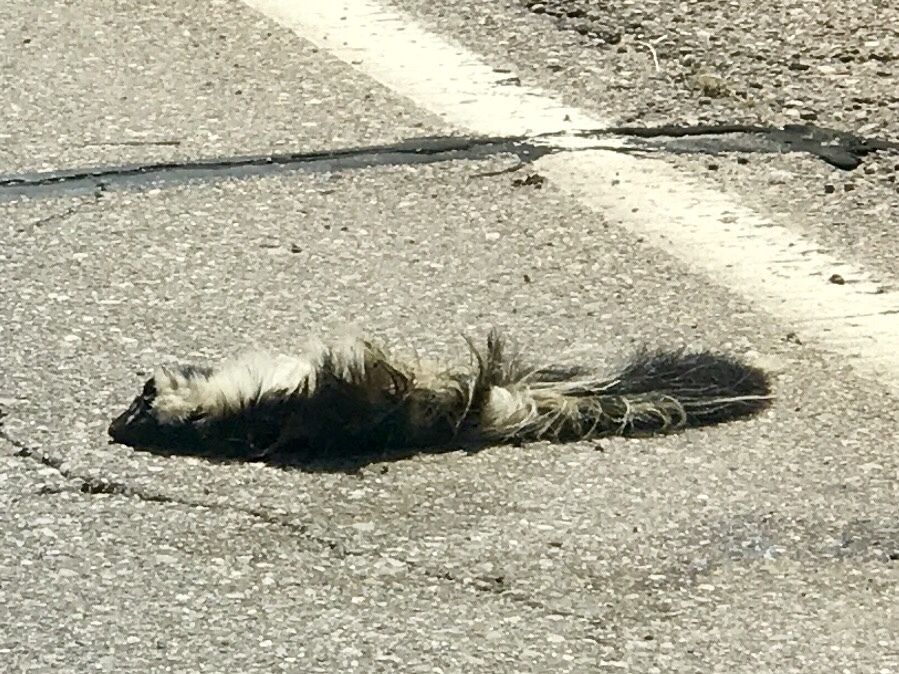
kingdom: Animalia
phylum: Chordata
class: Mammalia
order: Carnivora
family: Mephitidae
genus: Mephitis
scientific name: Mephitis mephitis
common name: Striped skunk
